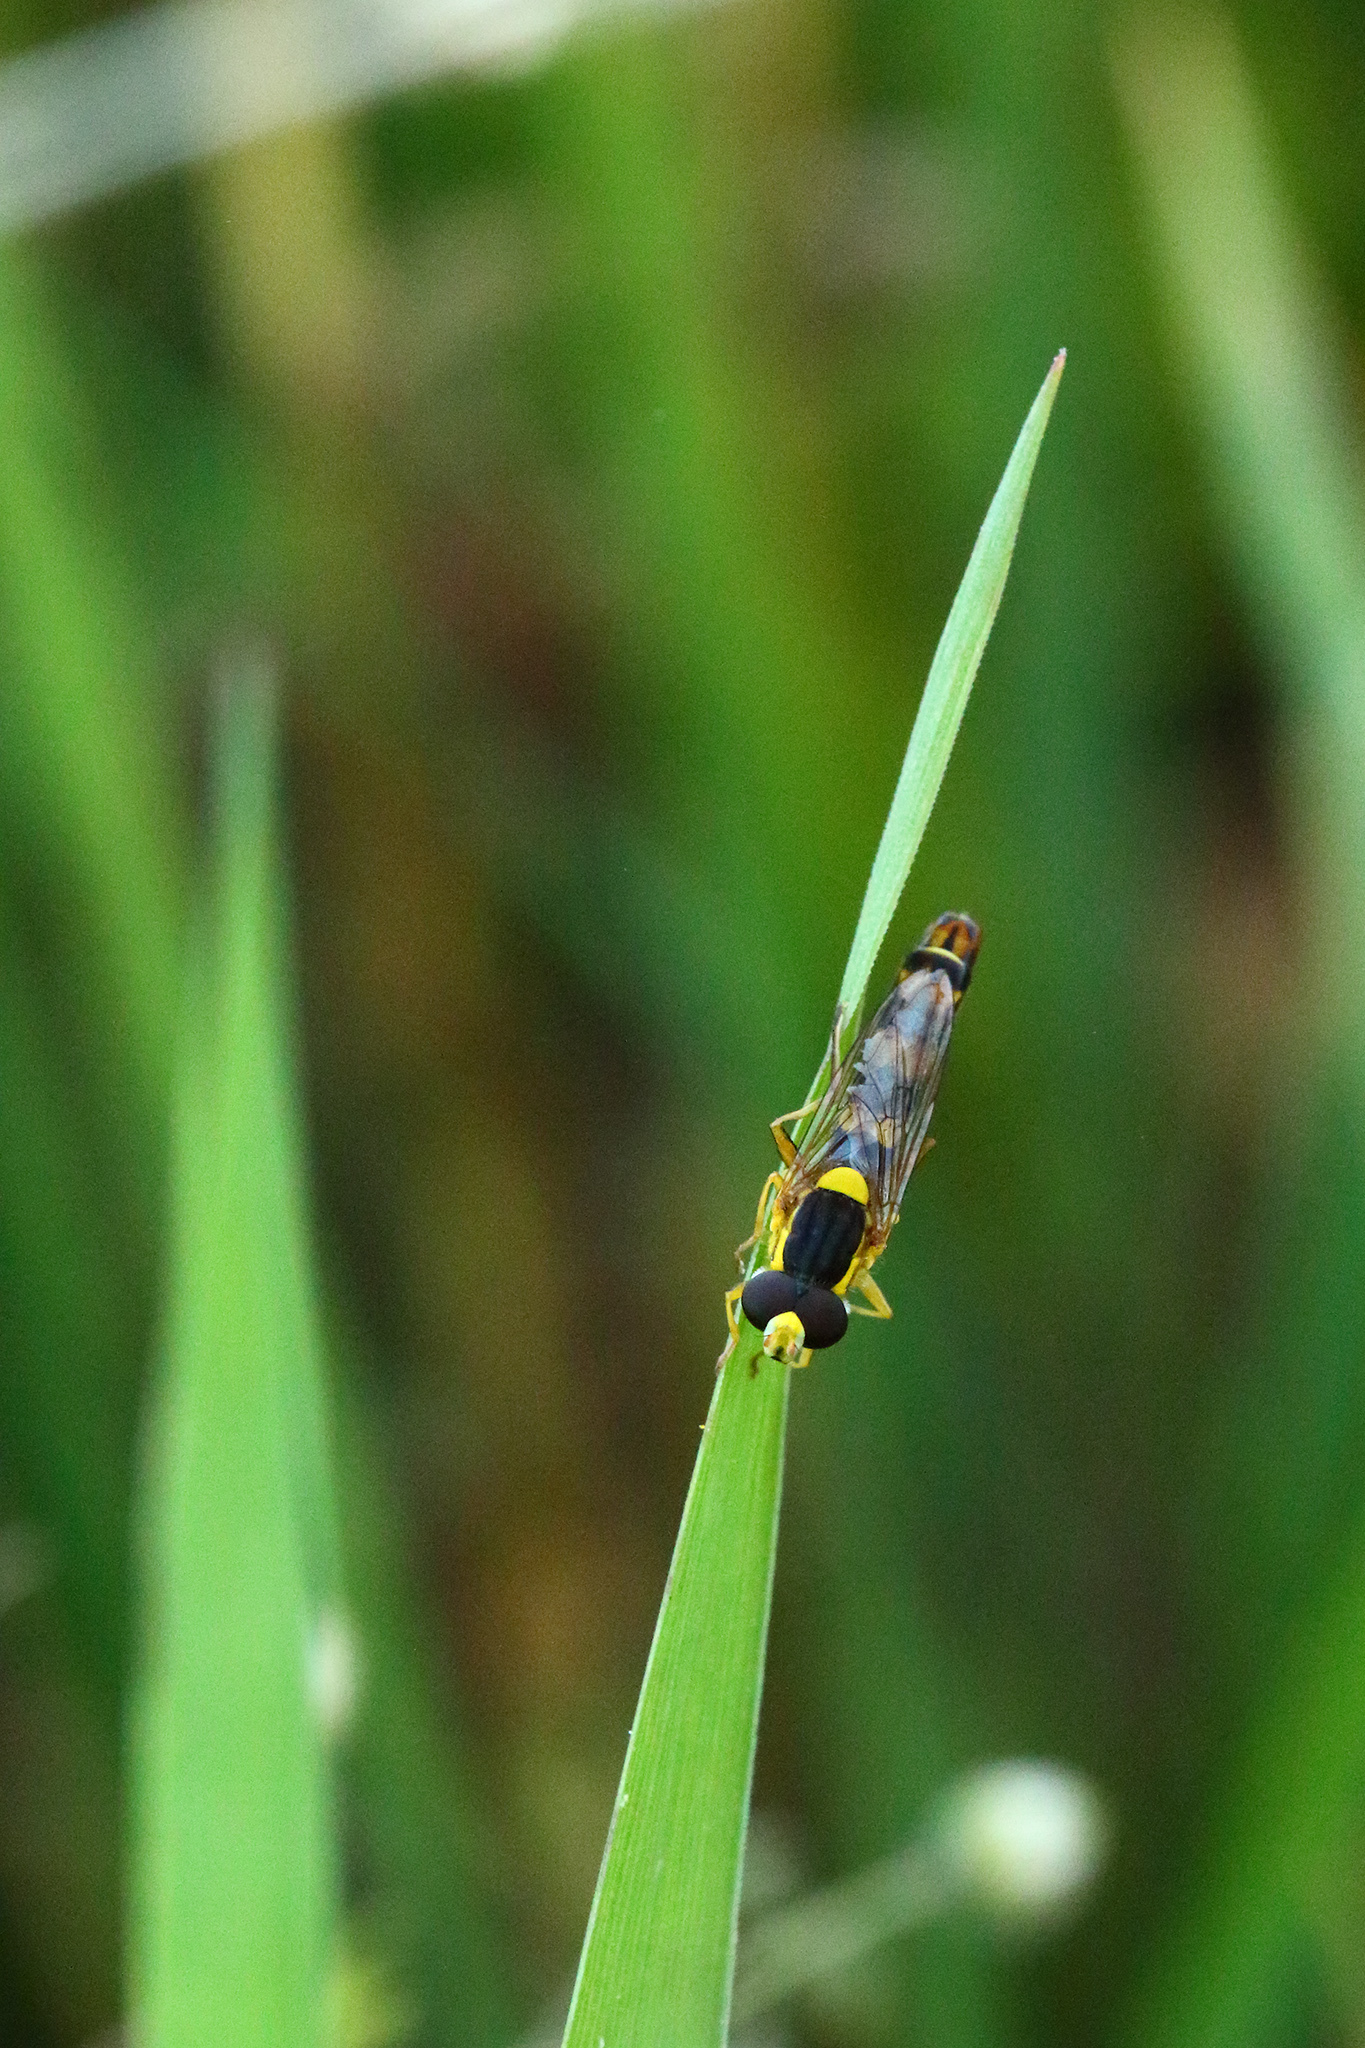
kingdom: Animalia
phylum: Arthropoda
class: Insecta
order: Diptera
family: Syrphidae
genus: Sphaerophoria
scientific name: Sphaerophoria scripta
